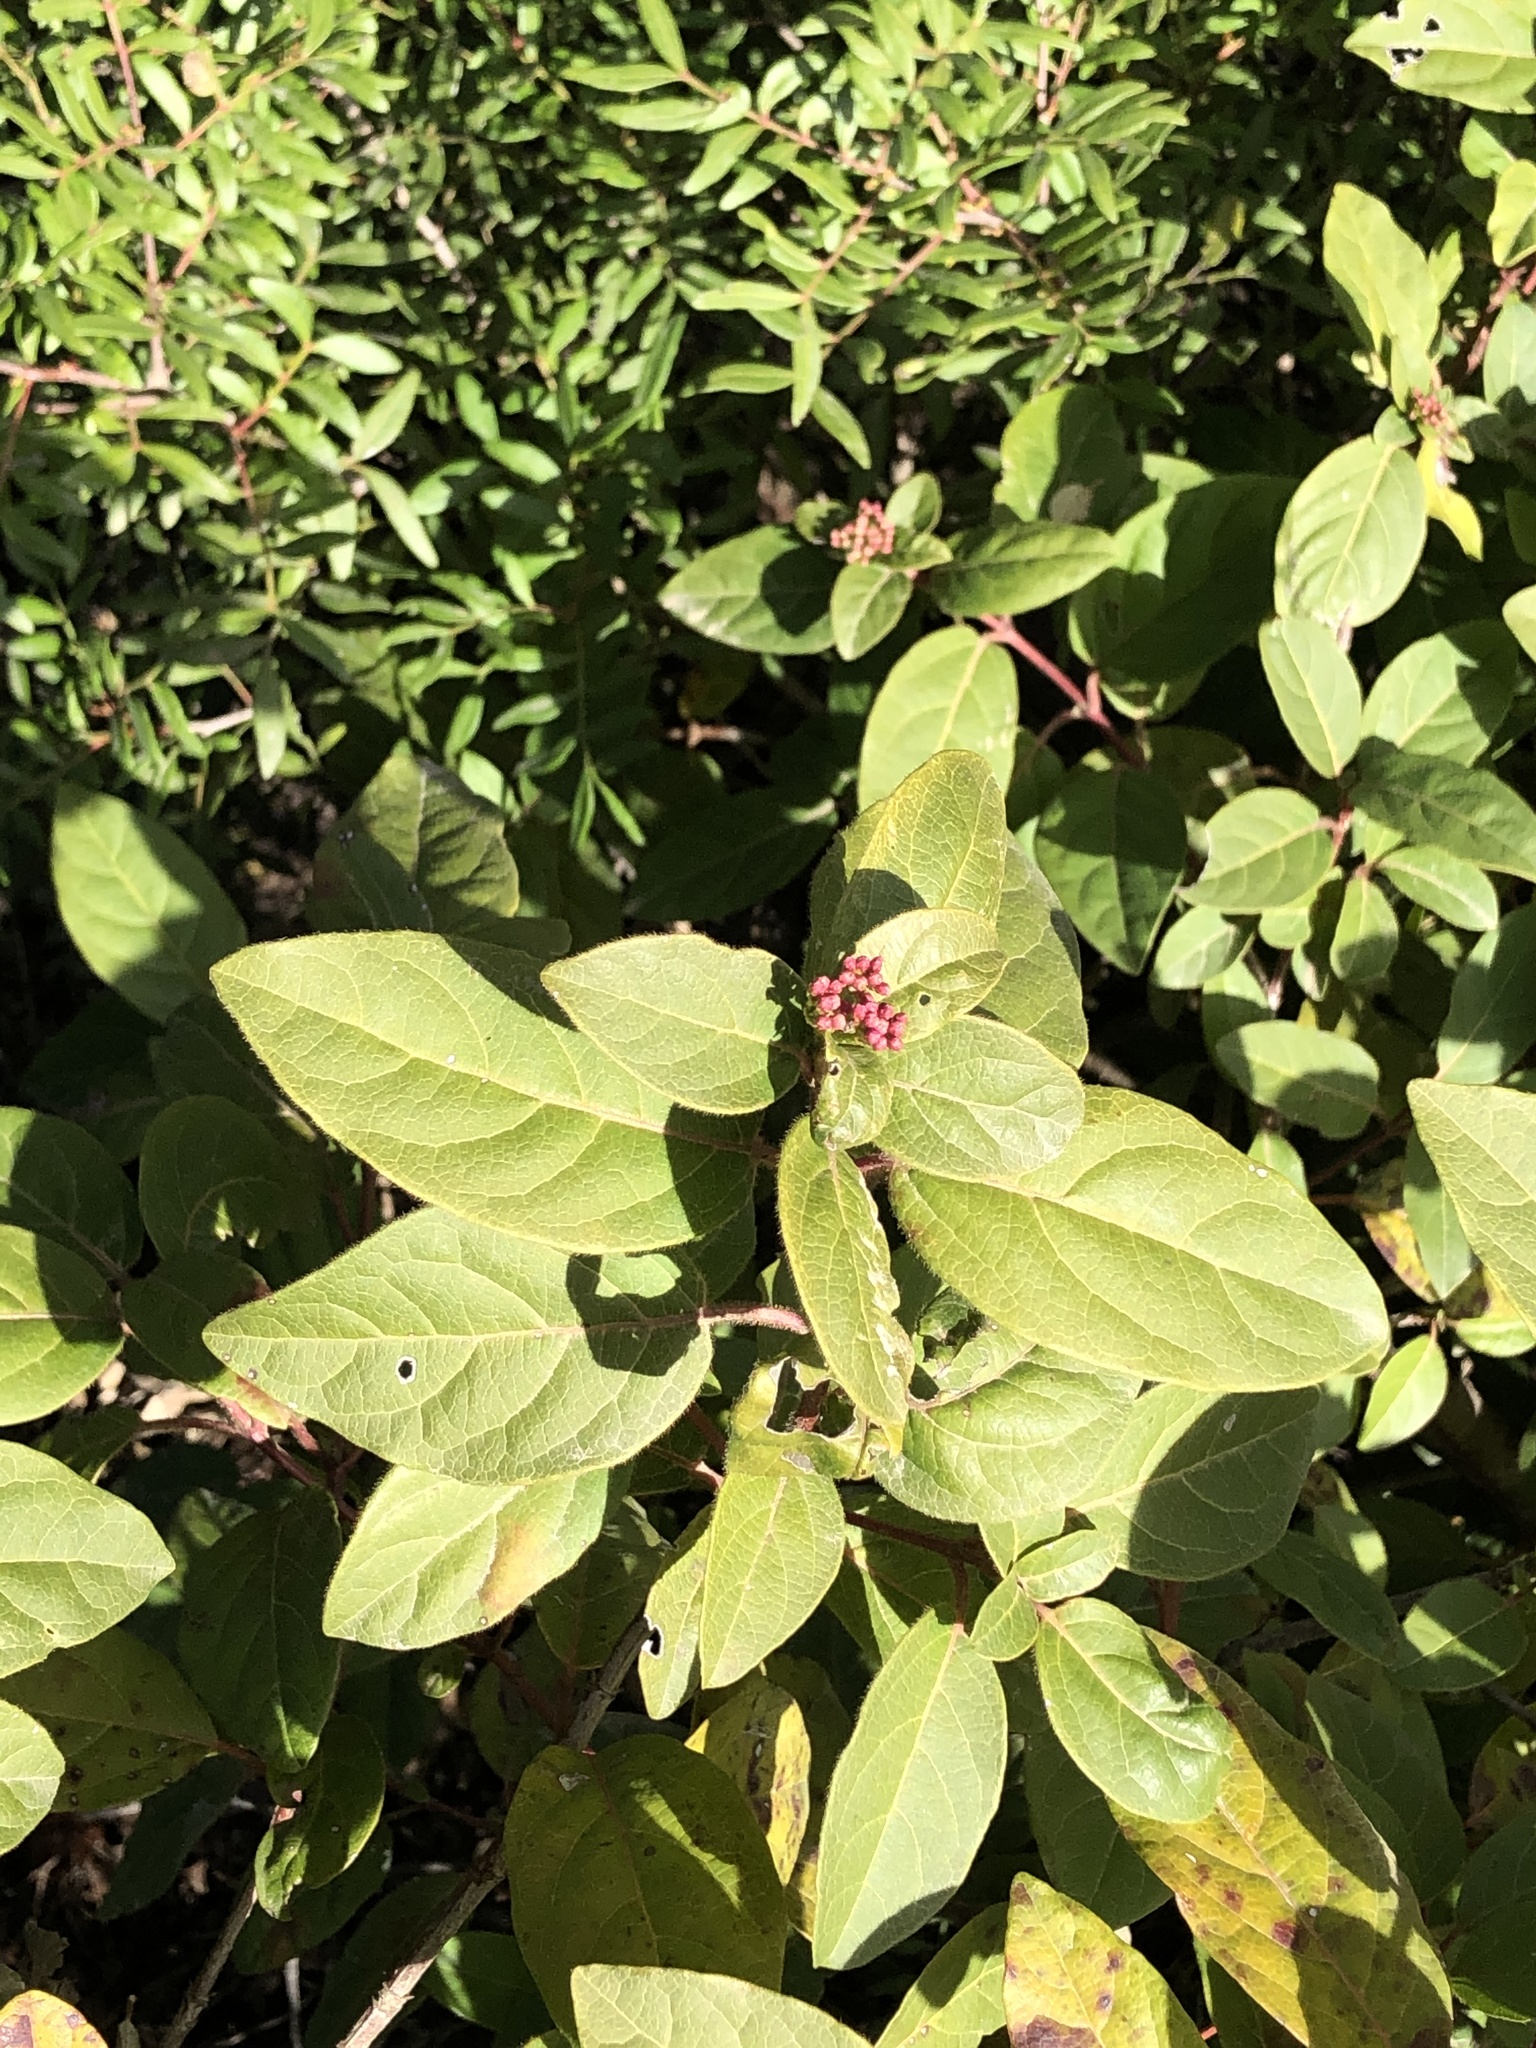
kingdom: Plantae
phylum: Tracheophyta
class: Magnoliopsida
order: Dipsacales
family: Viburnaceae
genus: Viburnum
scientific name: Viburnum tinus
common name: Laurustinus
